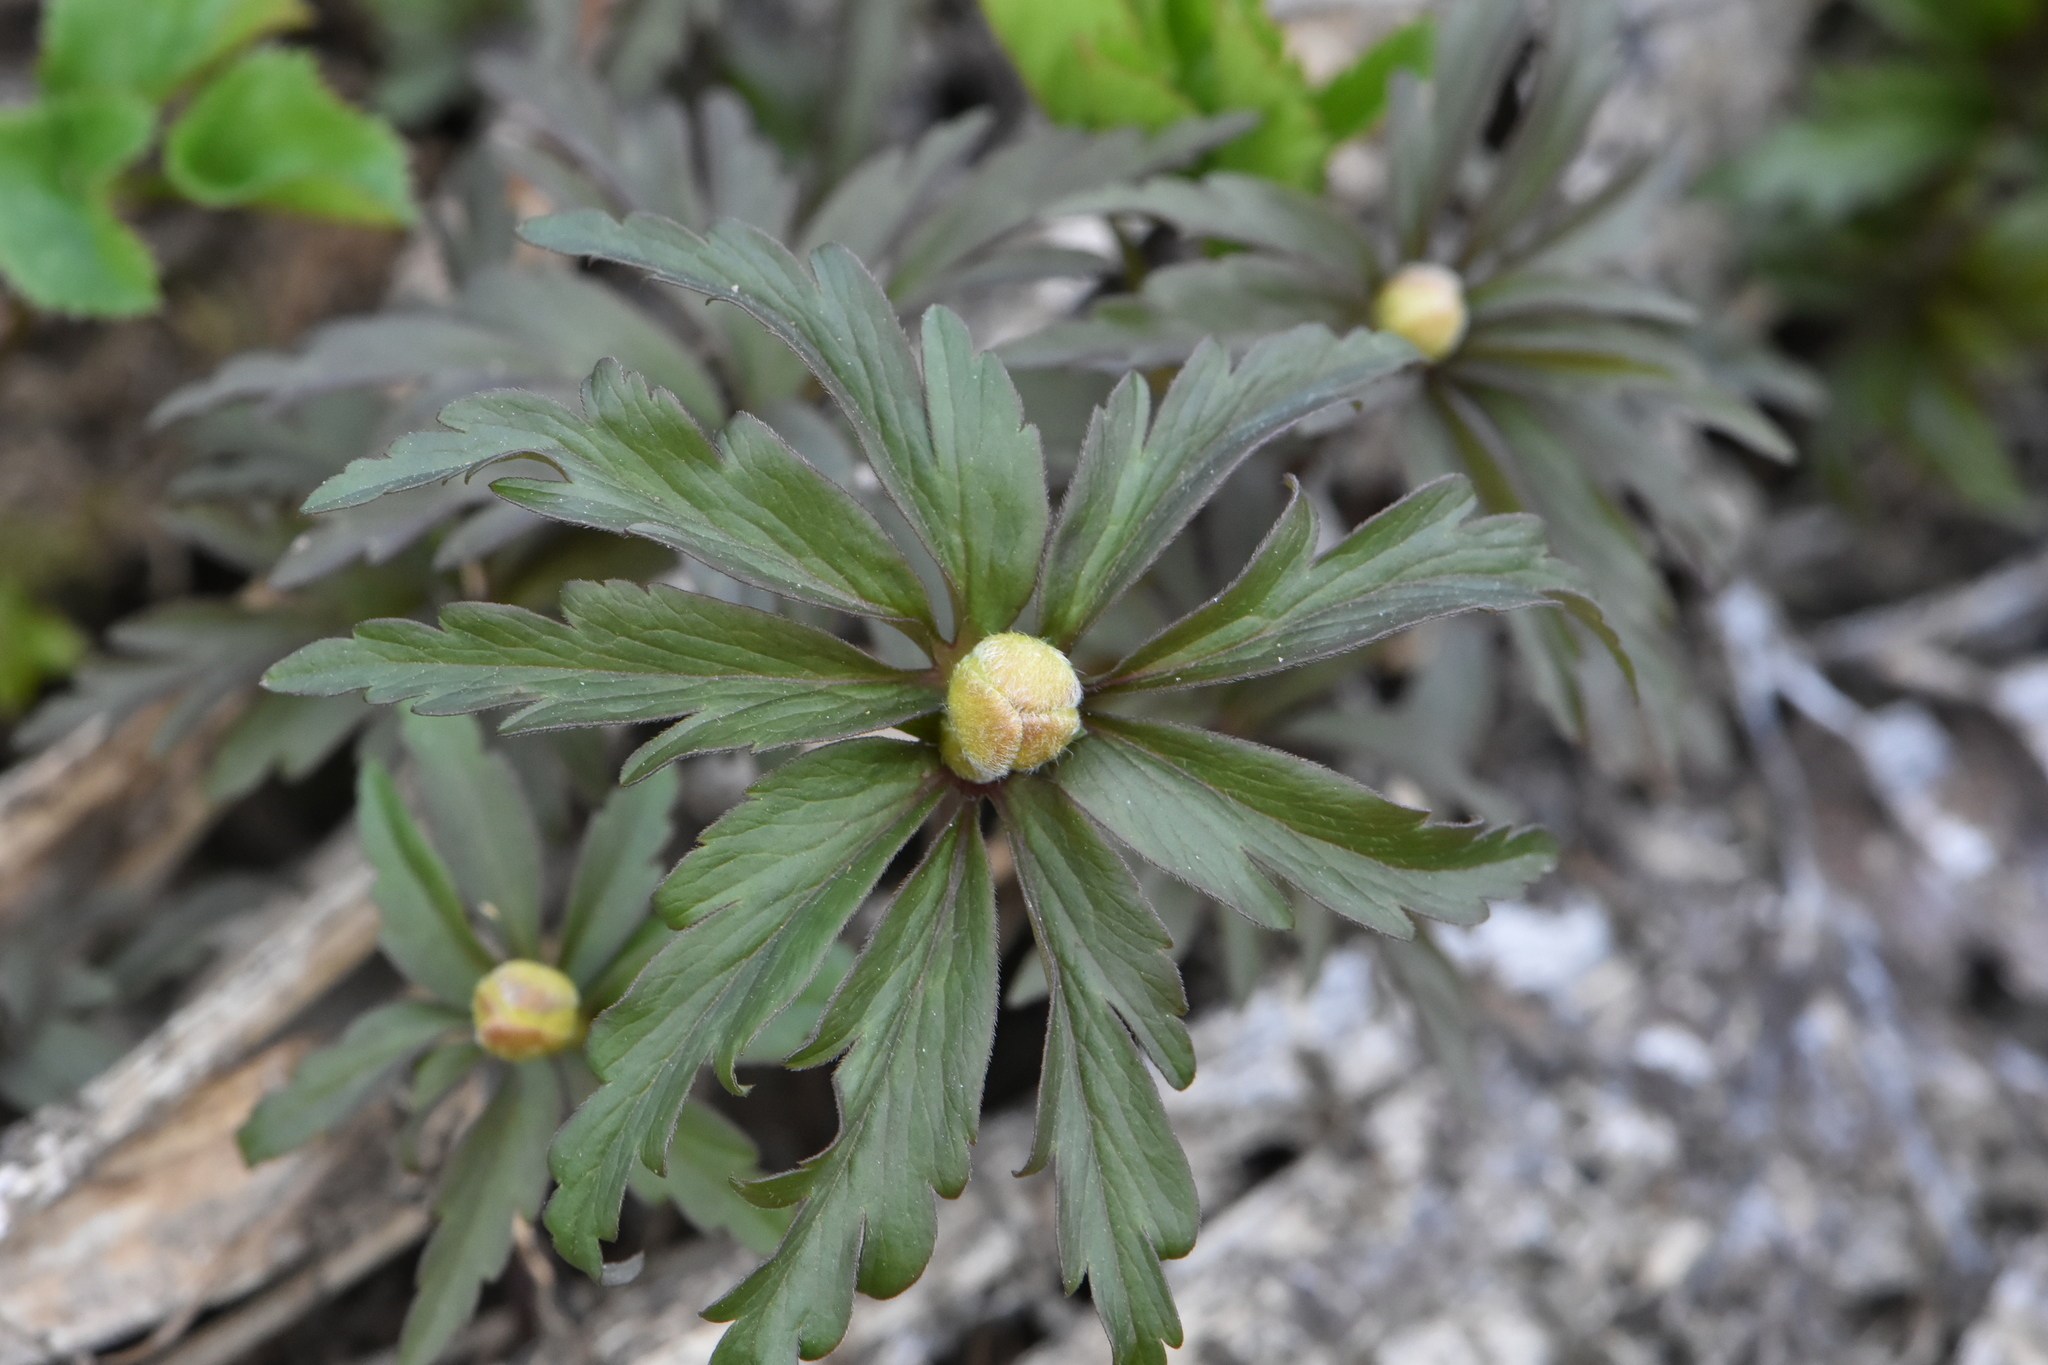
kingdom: Plantae
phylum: Tracheophyta
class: Magnoliopsida
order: Ranunculales
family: Ranunculaceae
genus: Anemone
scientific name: Anemone ranunculoides
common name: Yellow anemone
